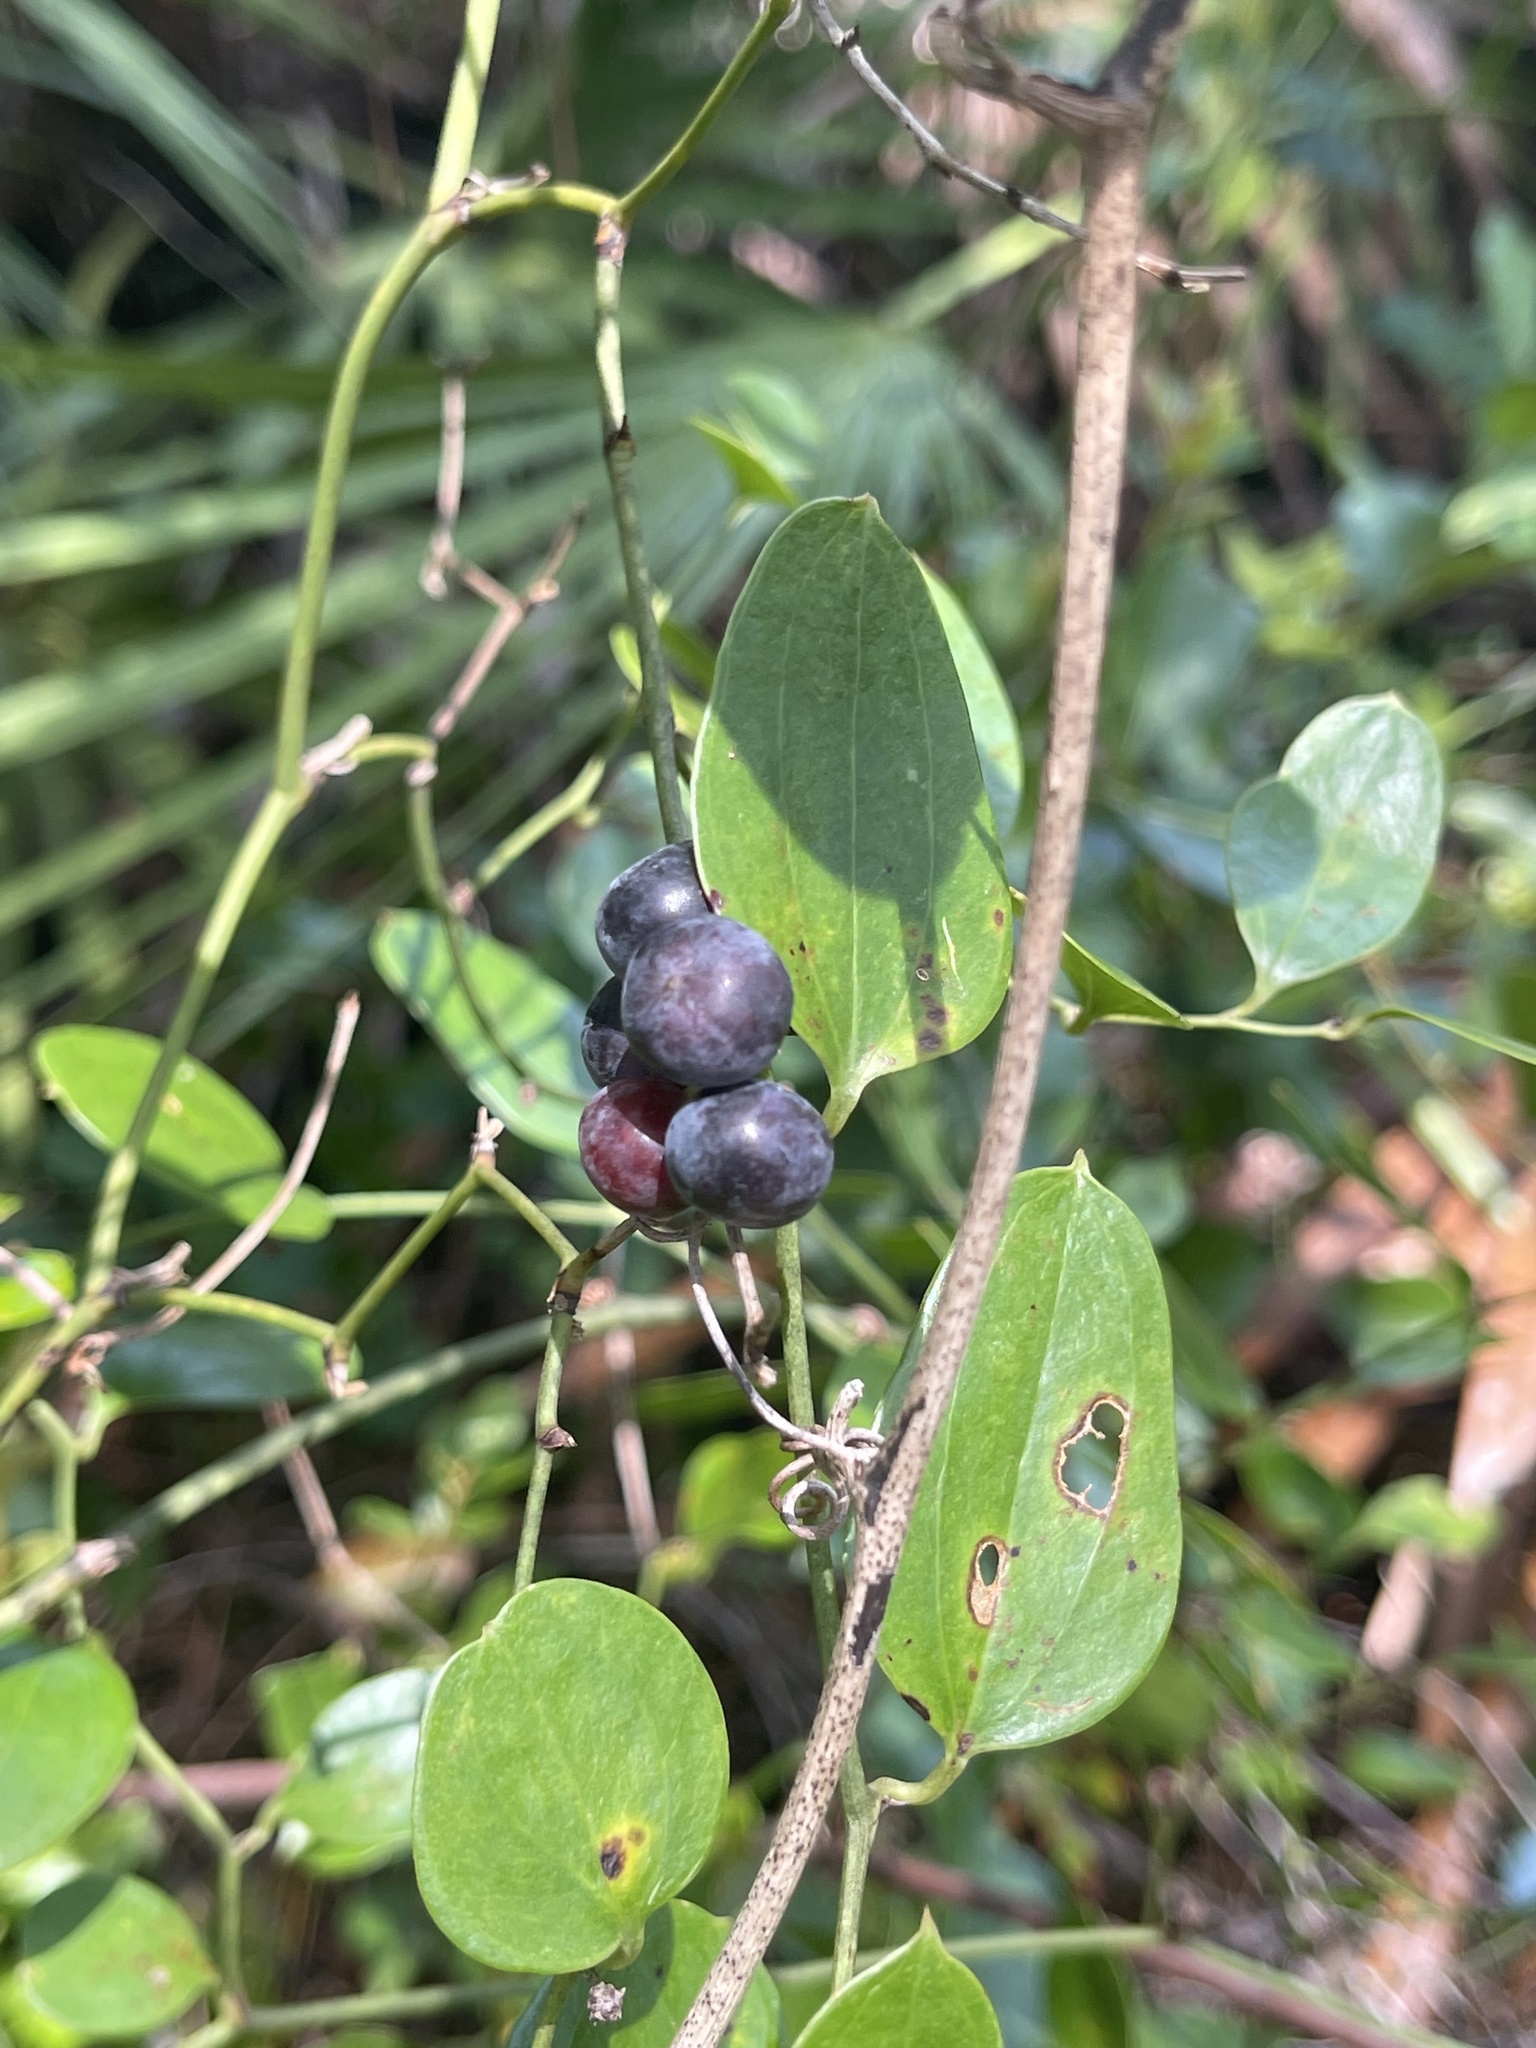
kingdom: Plantae
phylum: Tracheophyta
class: Liliopsida
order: Liliales
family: Smilacaceae
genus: Smilax
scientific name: Smilax auriculata
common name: Wild bamboo
